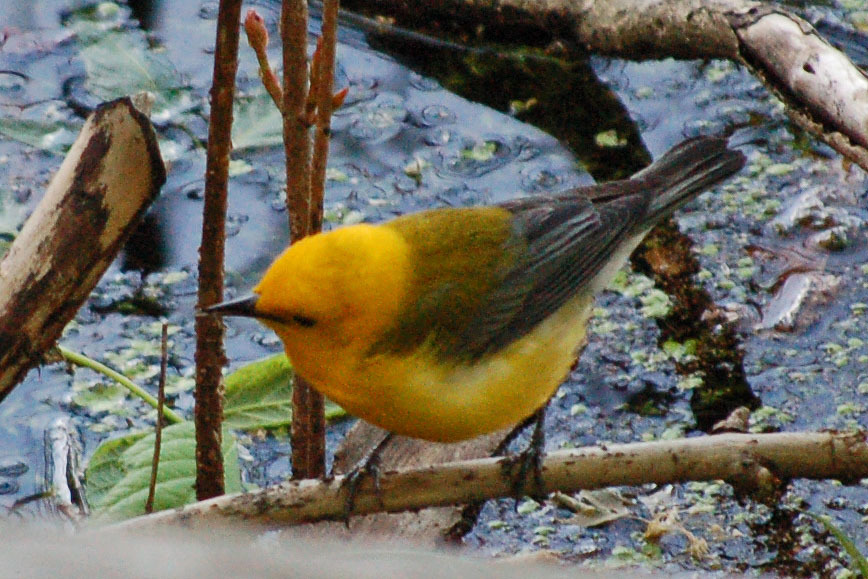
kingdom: Animalia
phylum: Chordata
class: Aves
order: Passeriformes
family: Parulidae
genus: Protonotaria
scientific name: Protonotaria citrea
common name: Prothonotary warbler
